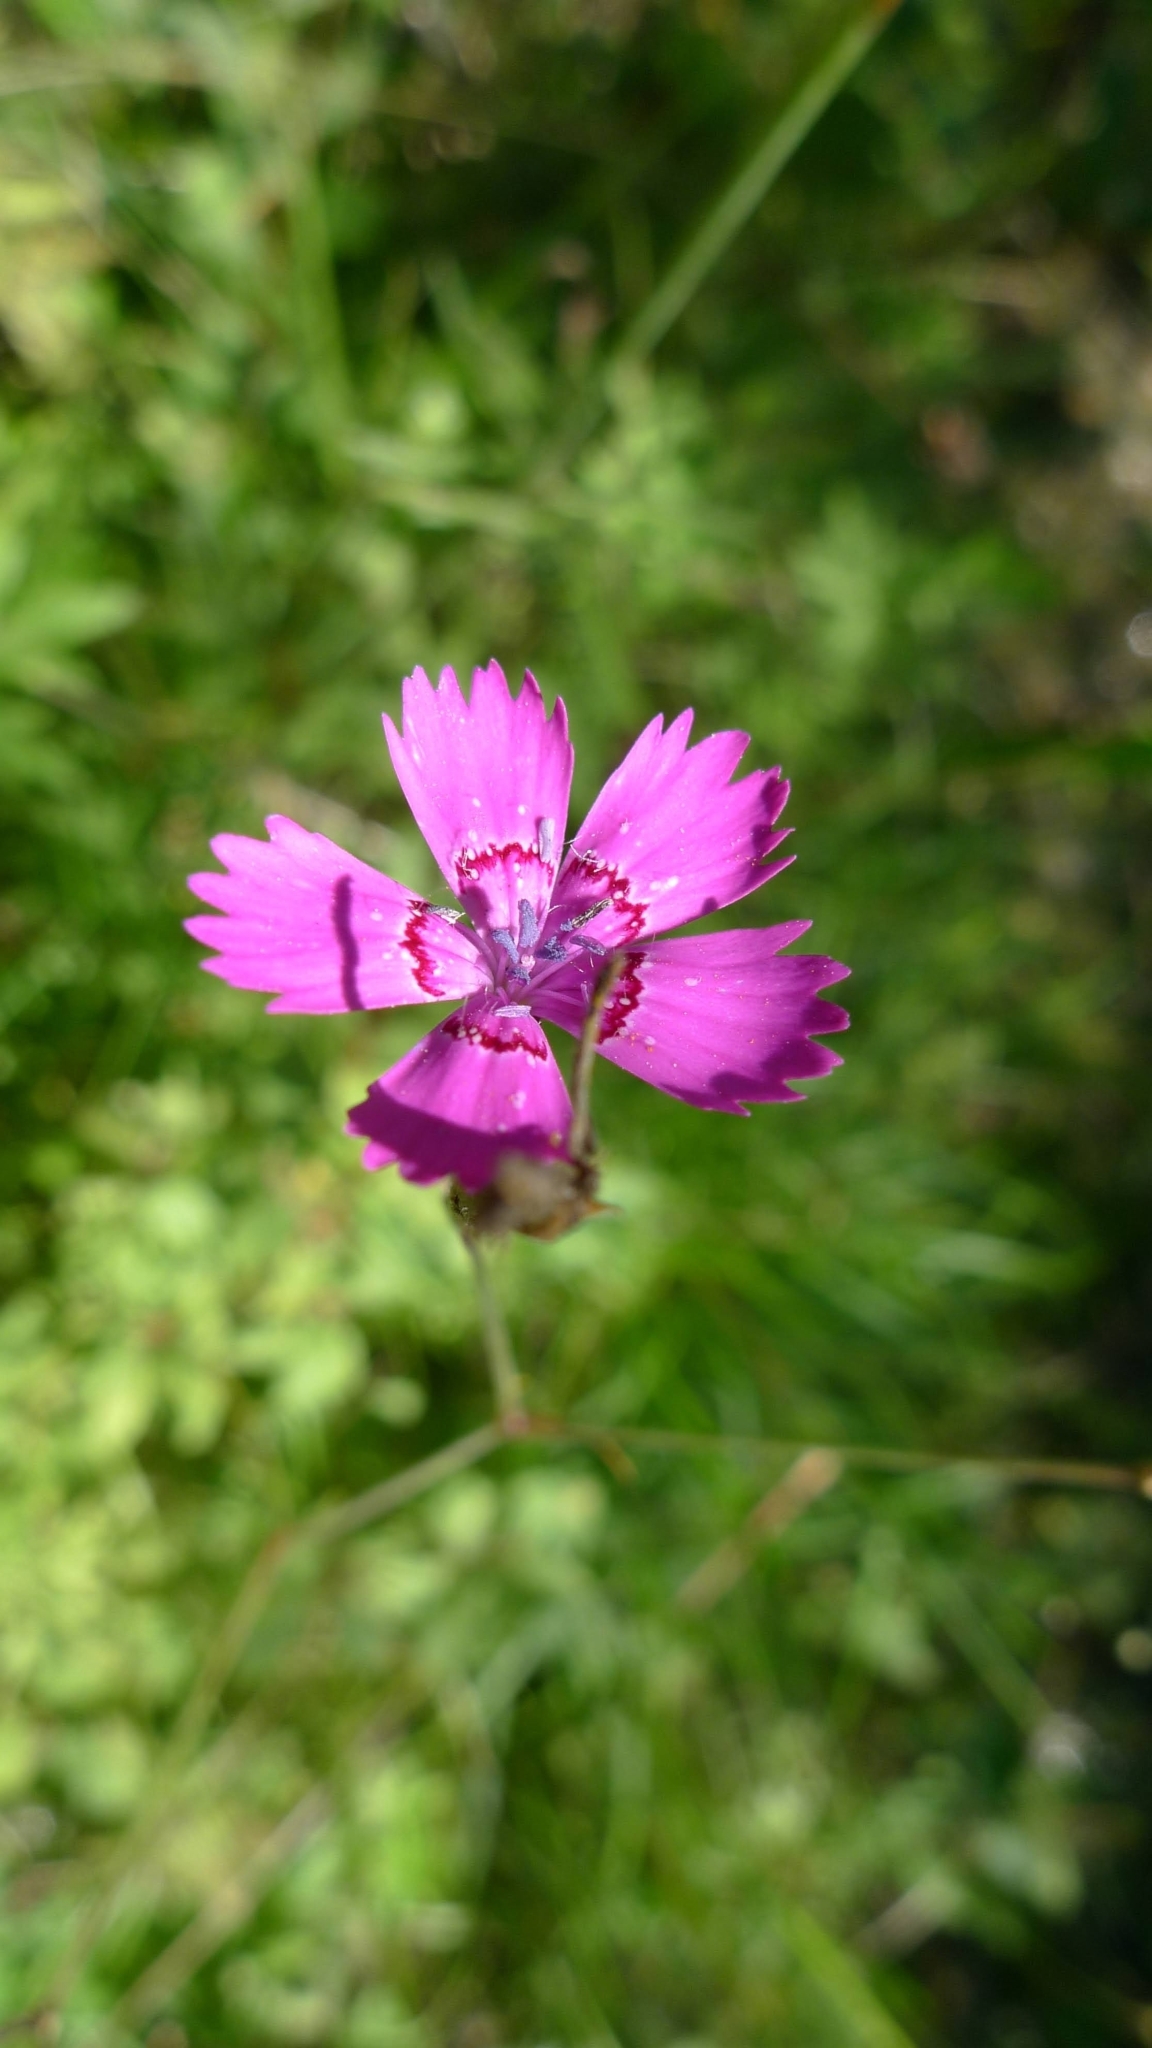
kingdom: Plantae
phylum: Tracheophyta
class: Magnoliopsida
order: Caryophyllales
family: Caryophyllaceae
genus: Dianthus
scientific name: Dianthus deltoides
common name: Maiden pink
